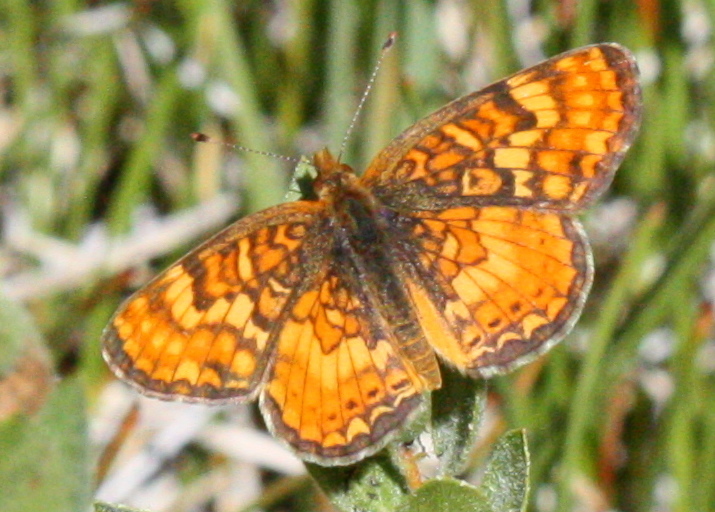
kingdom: Animalia
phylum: Arthropoda
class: Insecta
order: Lepidoptera
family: Nymphalidae
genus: Phyciodes
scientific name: Phyciodes tharos
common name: Pearl crescent
